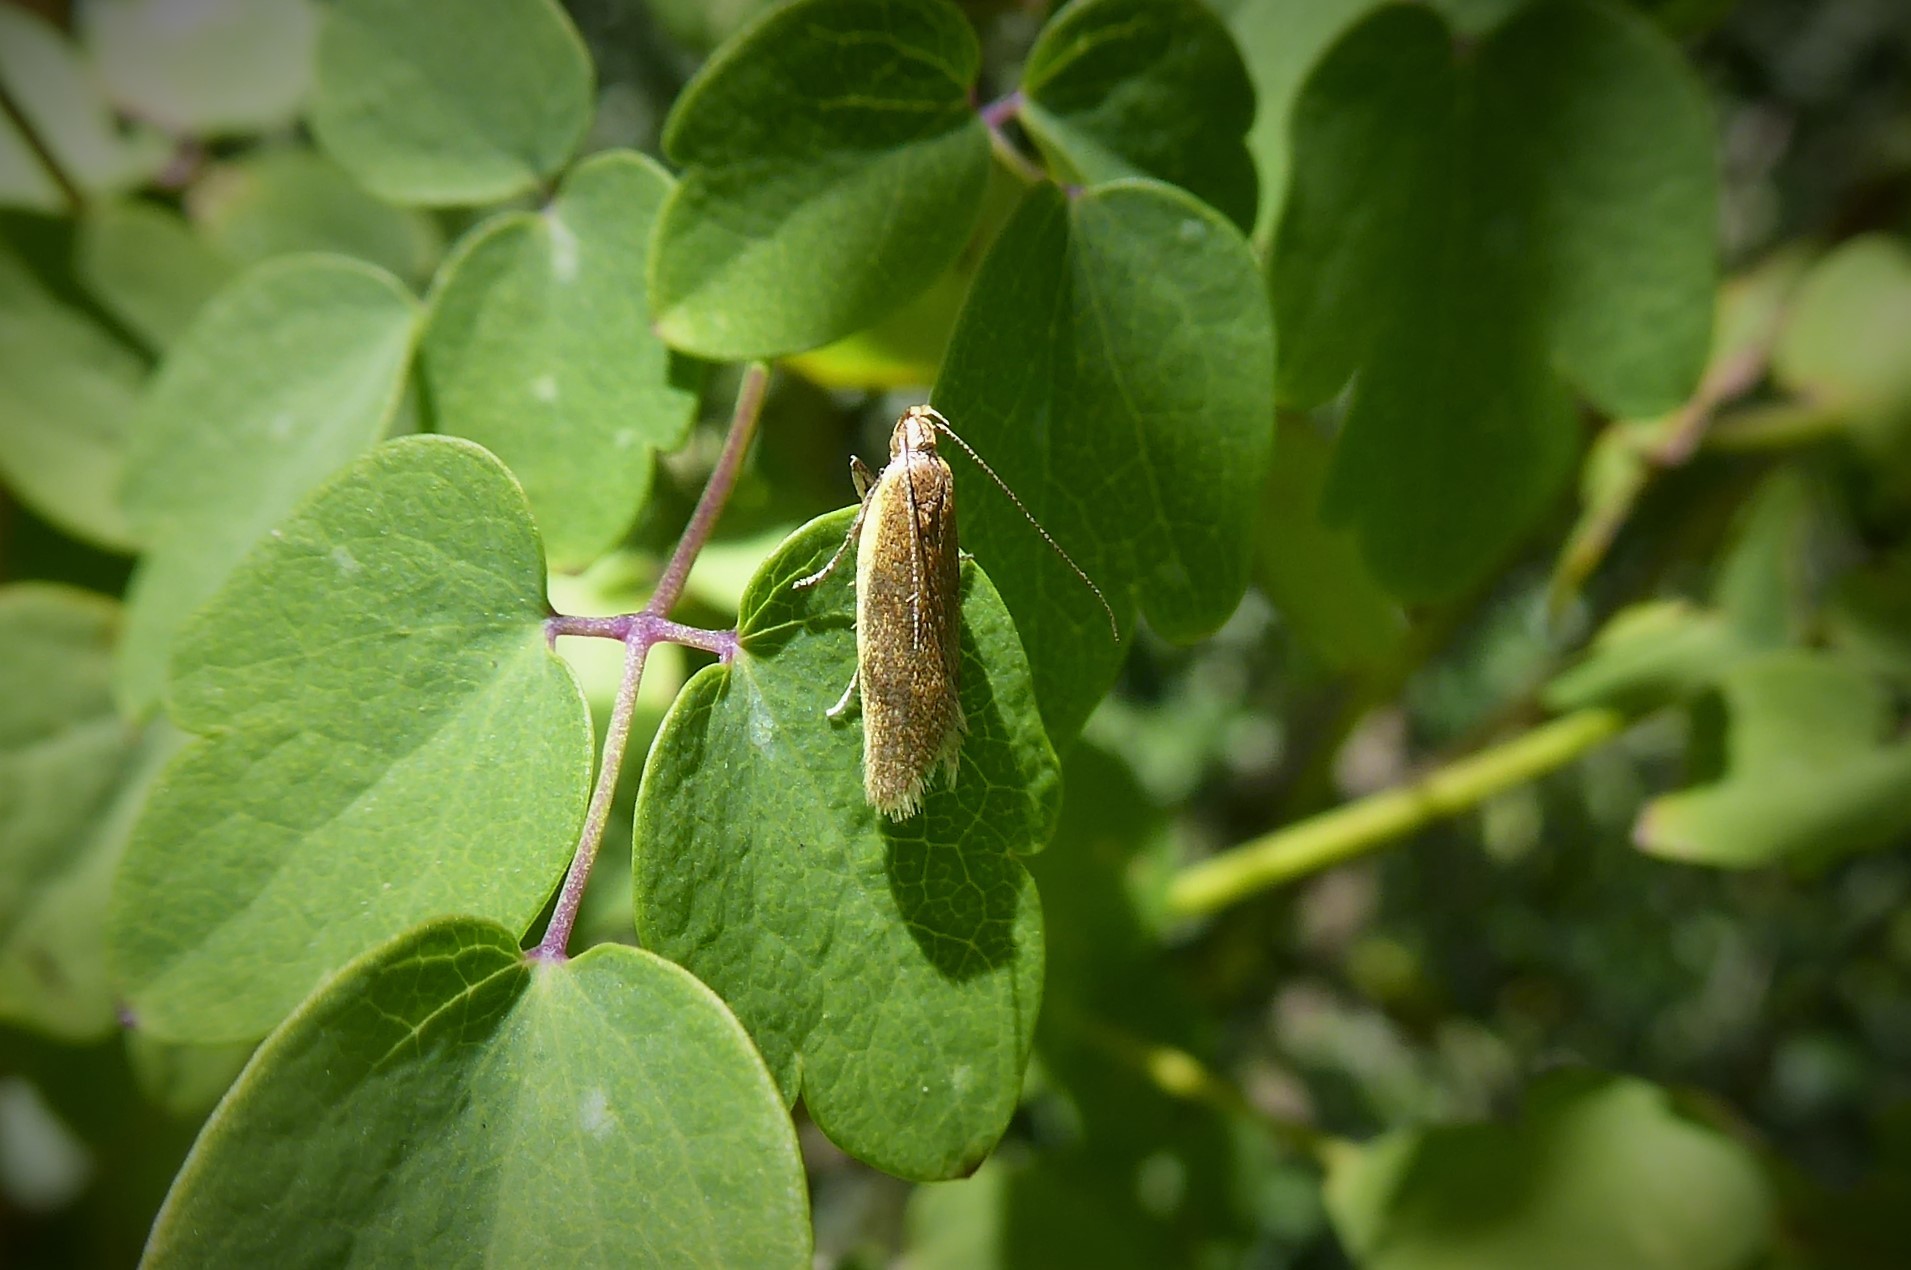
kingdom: Animalia
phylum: Arthropoda
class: Insecta
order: Lepidoptera
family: Oecophoridae
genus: Gymnobathra
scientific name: Gymnobathra parca
